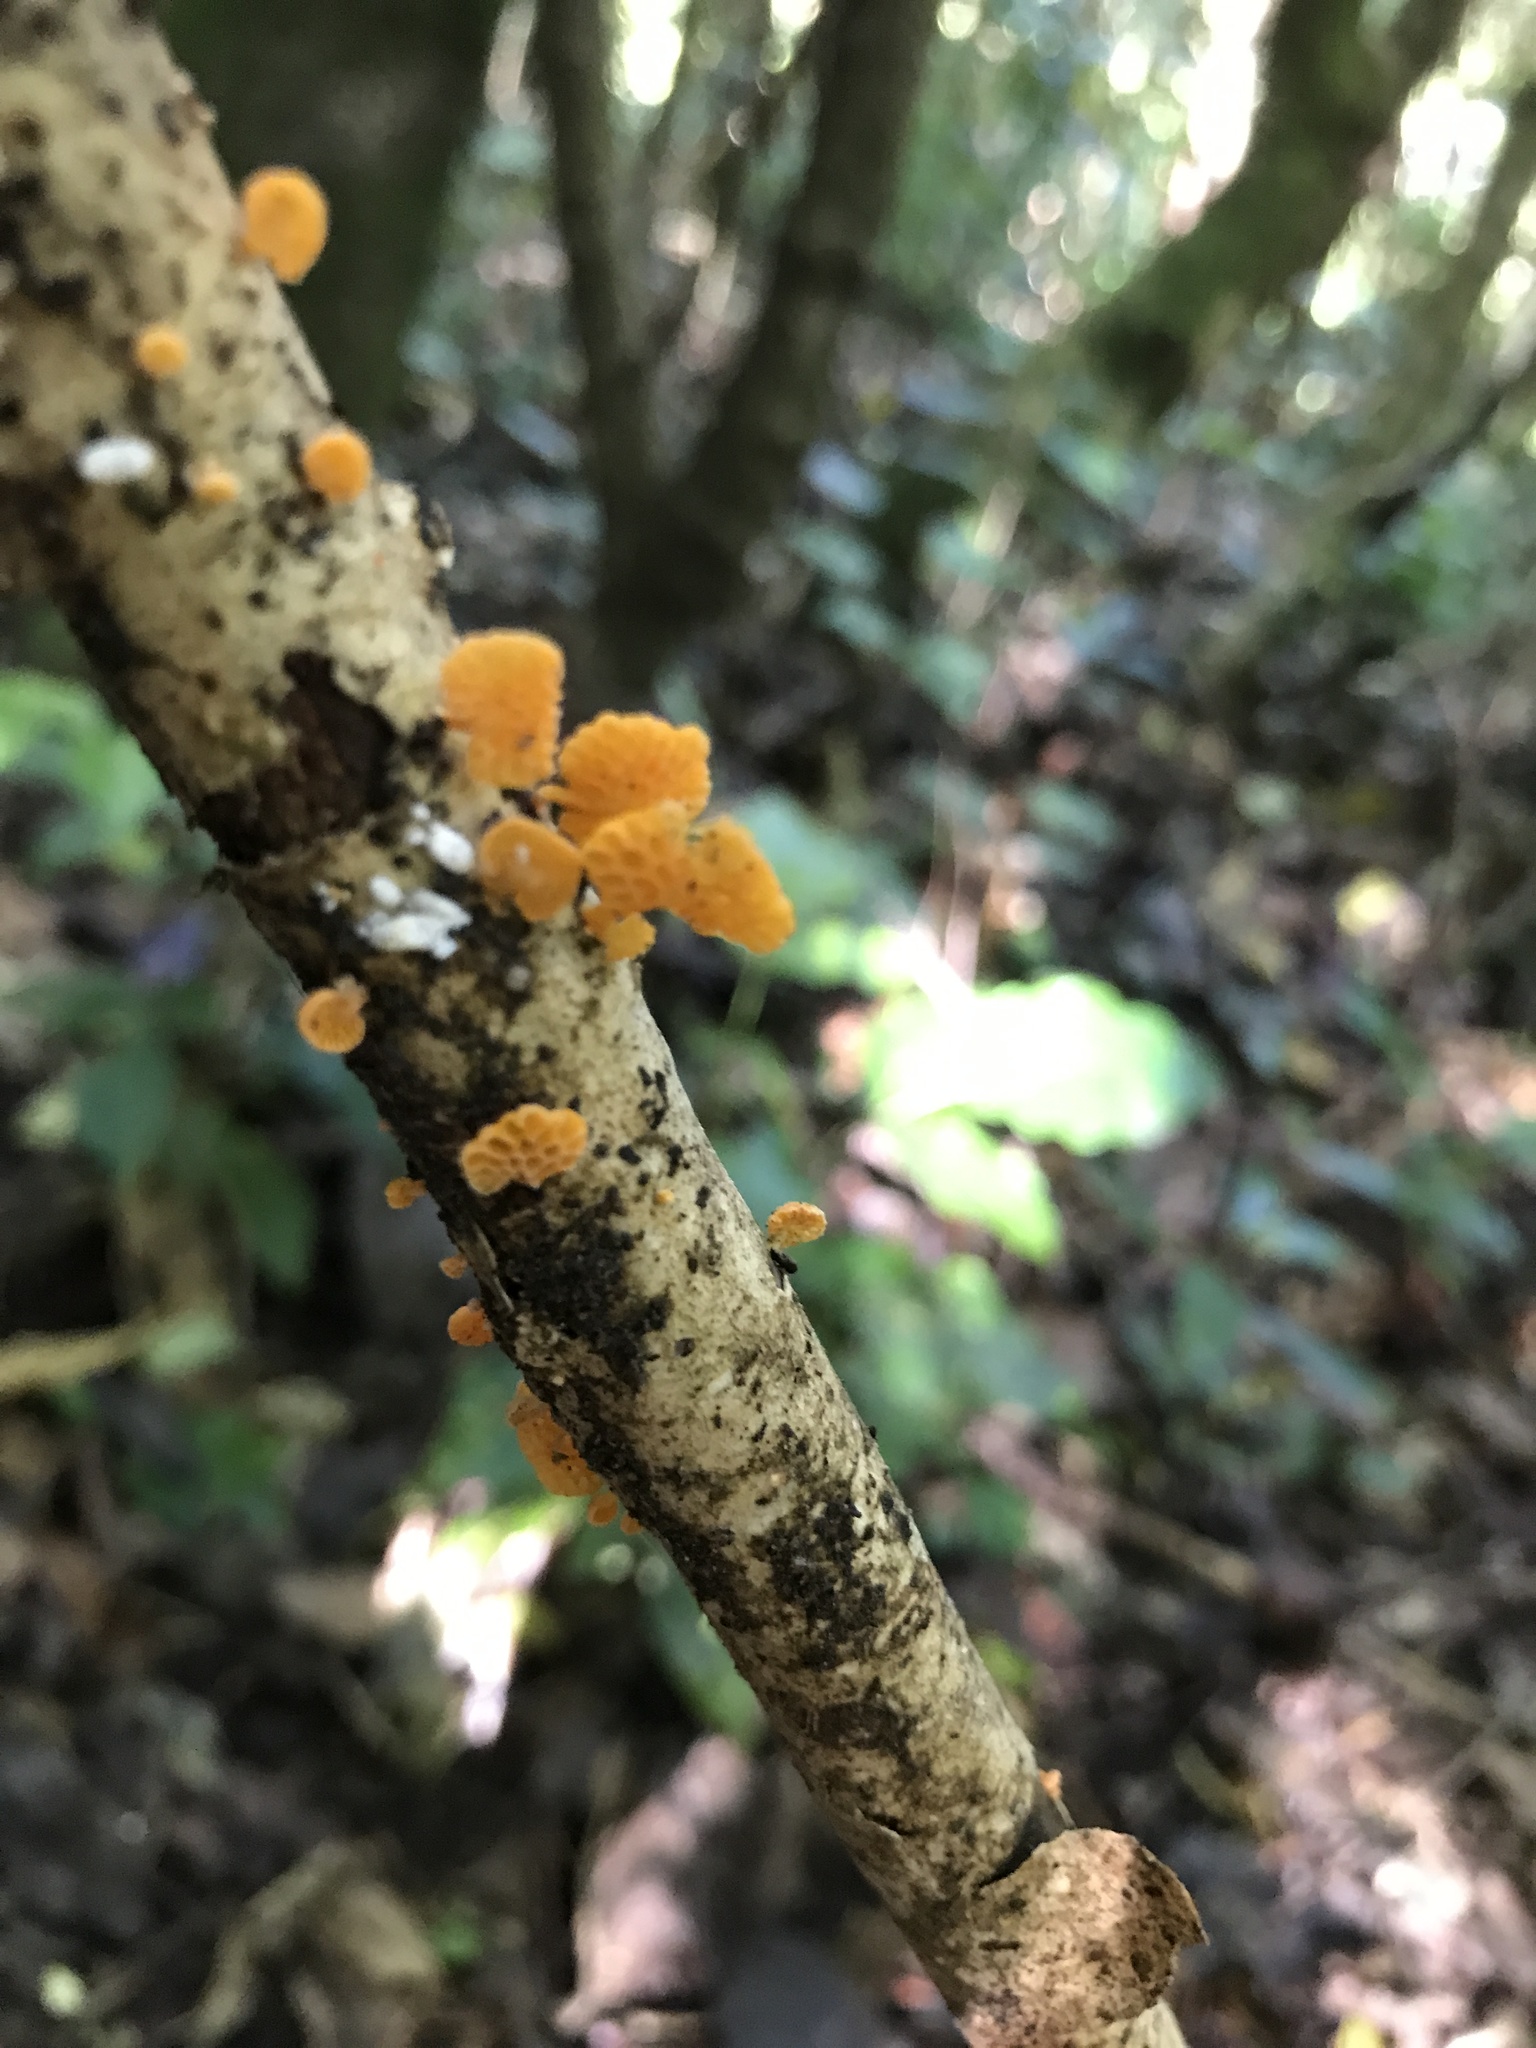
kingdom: Fungi
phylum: Basidiomycota
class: Agaricomycetes
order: Agaricales
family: Mycenaceae
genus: Favolaschia
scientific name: Favolaschia claudopus
